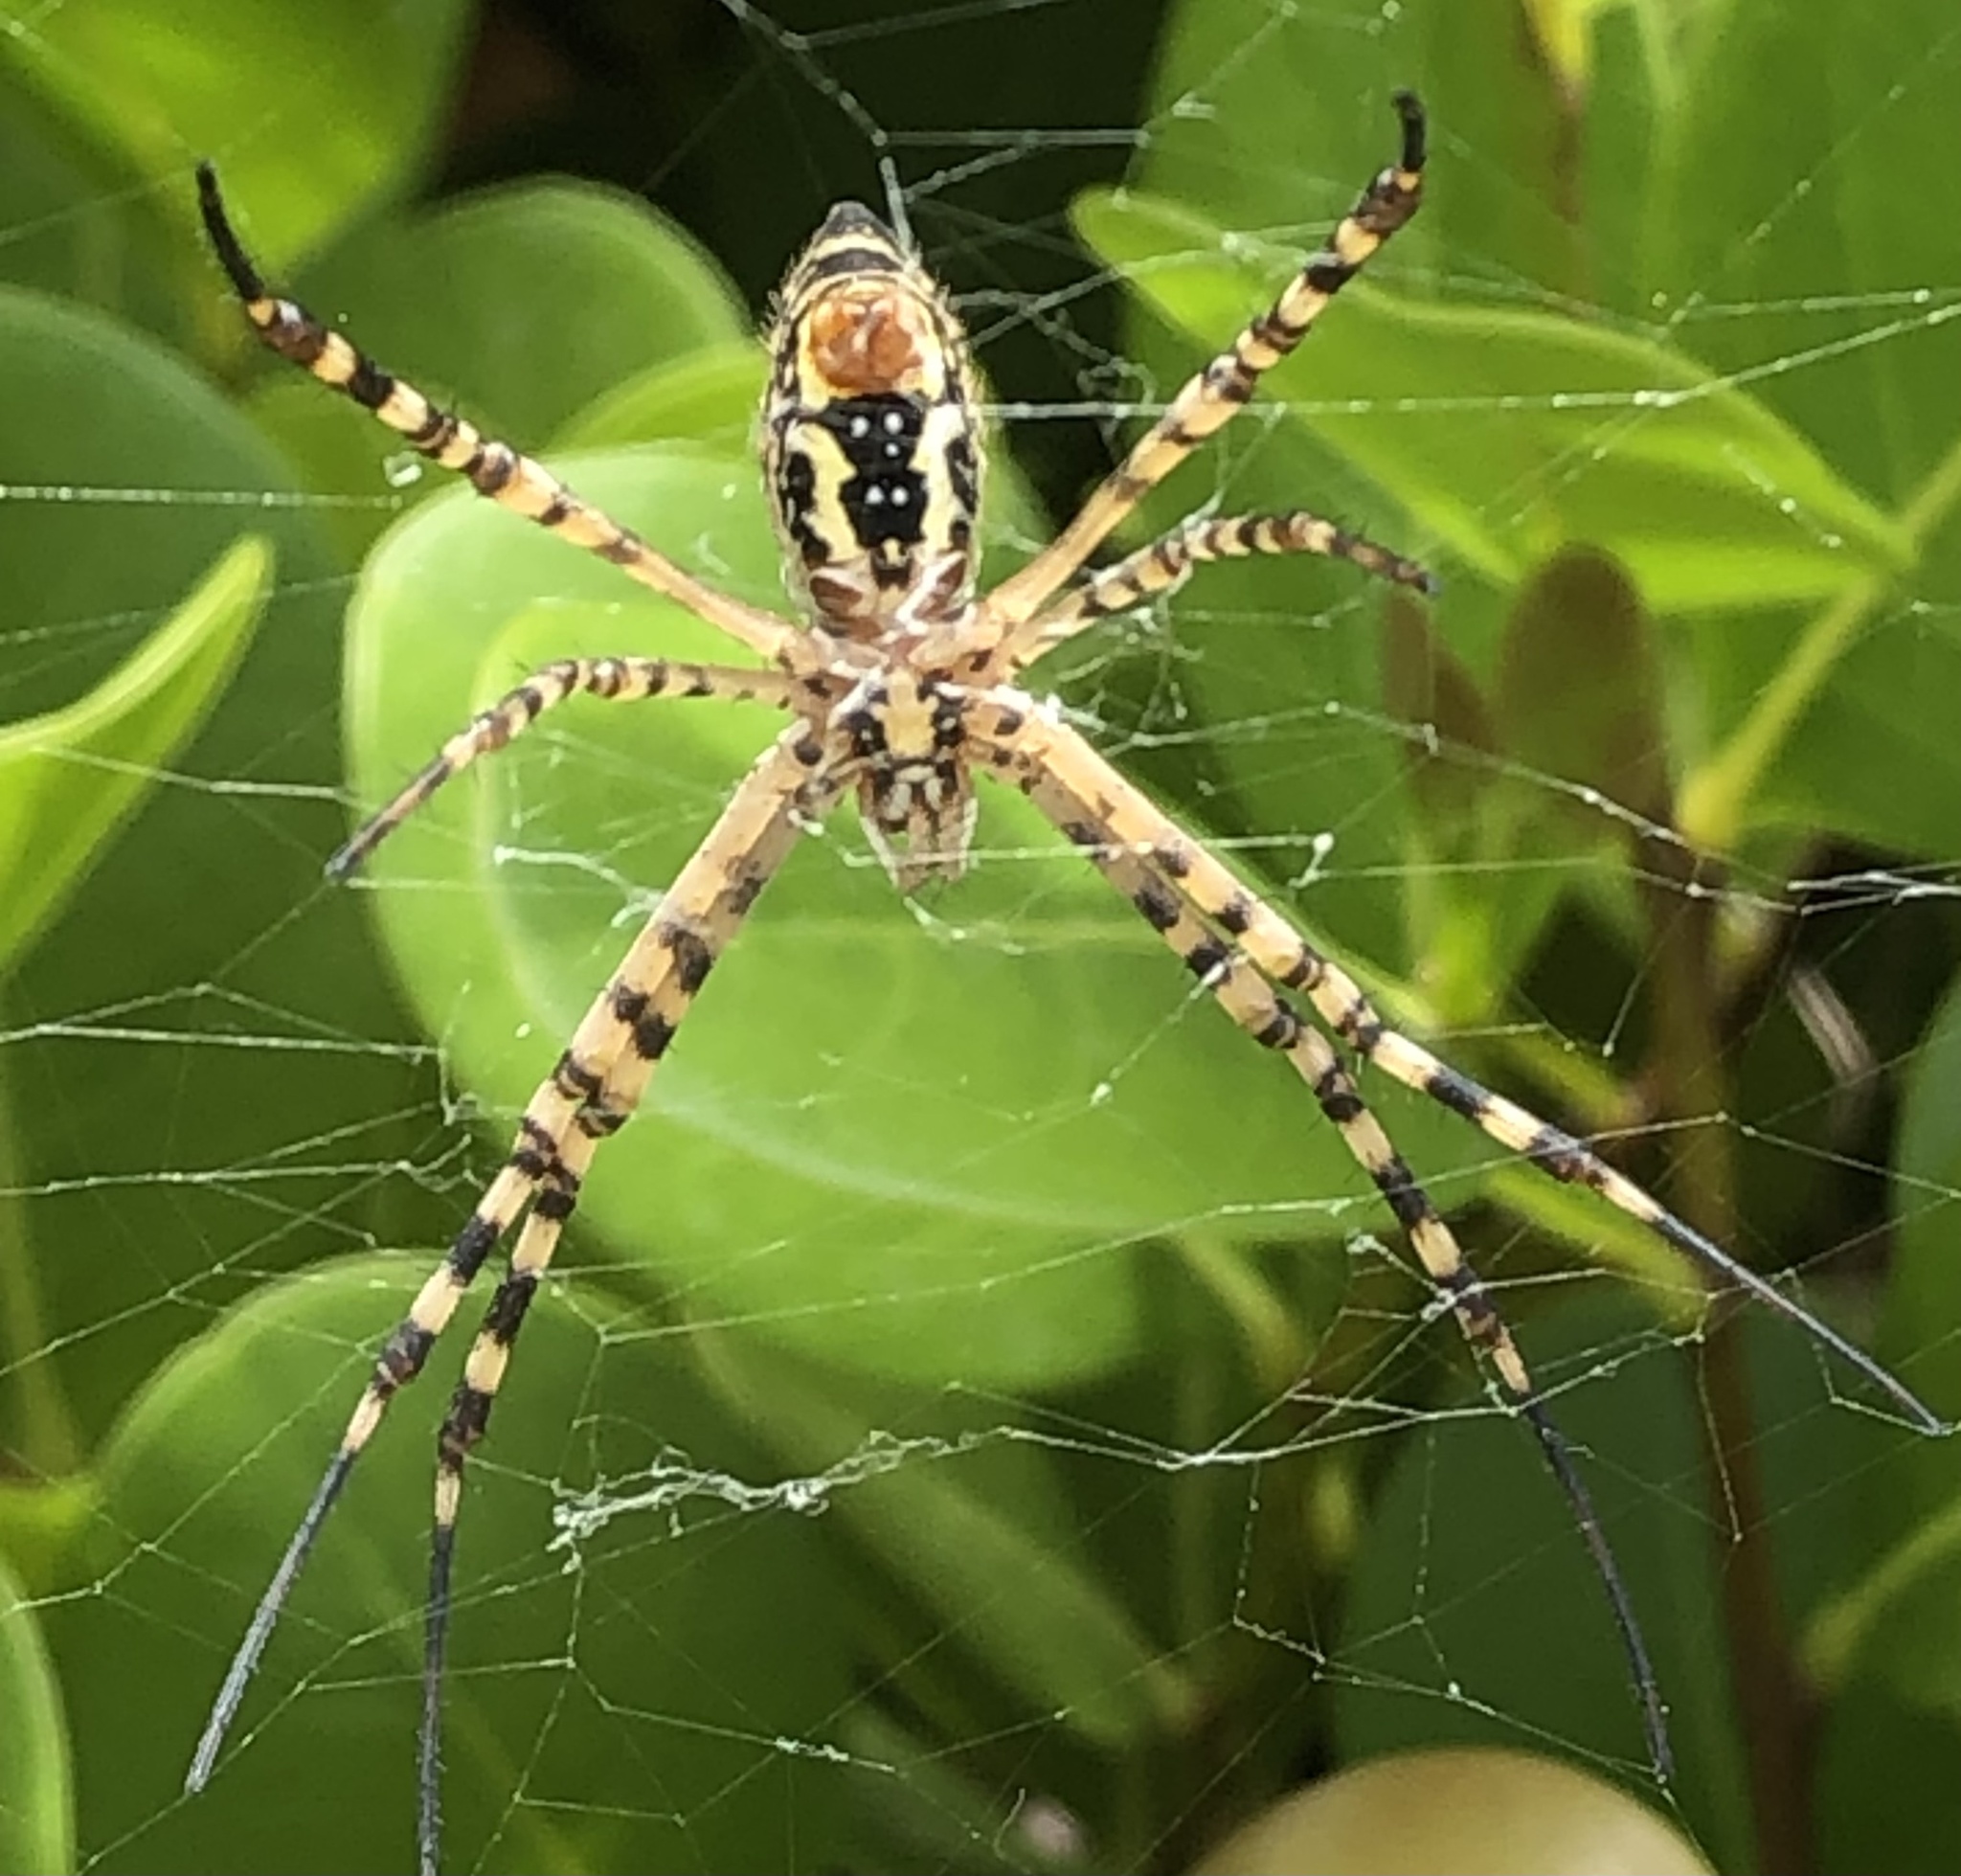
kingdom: Animalia
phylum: Arthropoda
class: Arachnida
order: Araneae
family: Araneidae
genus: Argiope
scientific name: Argiope trifasciata
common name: Banded garden spider
